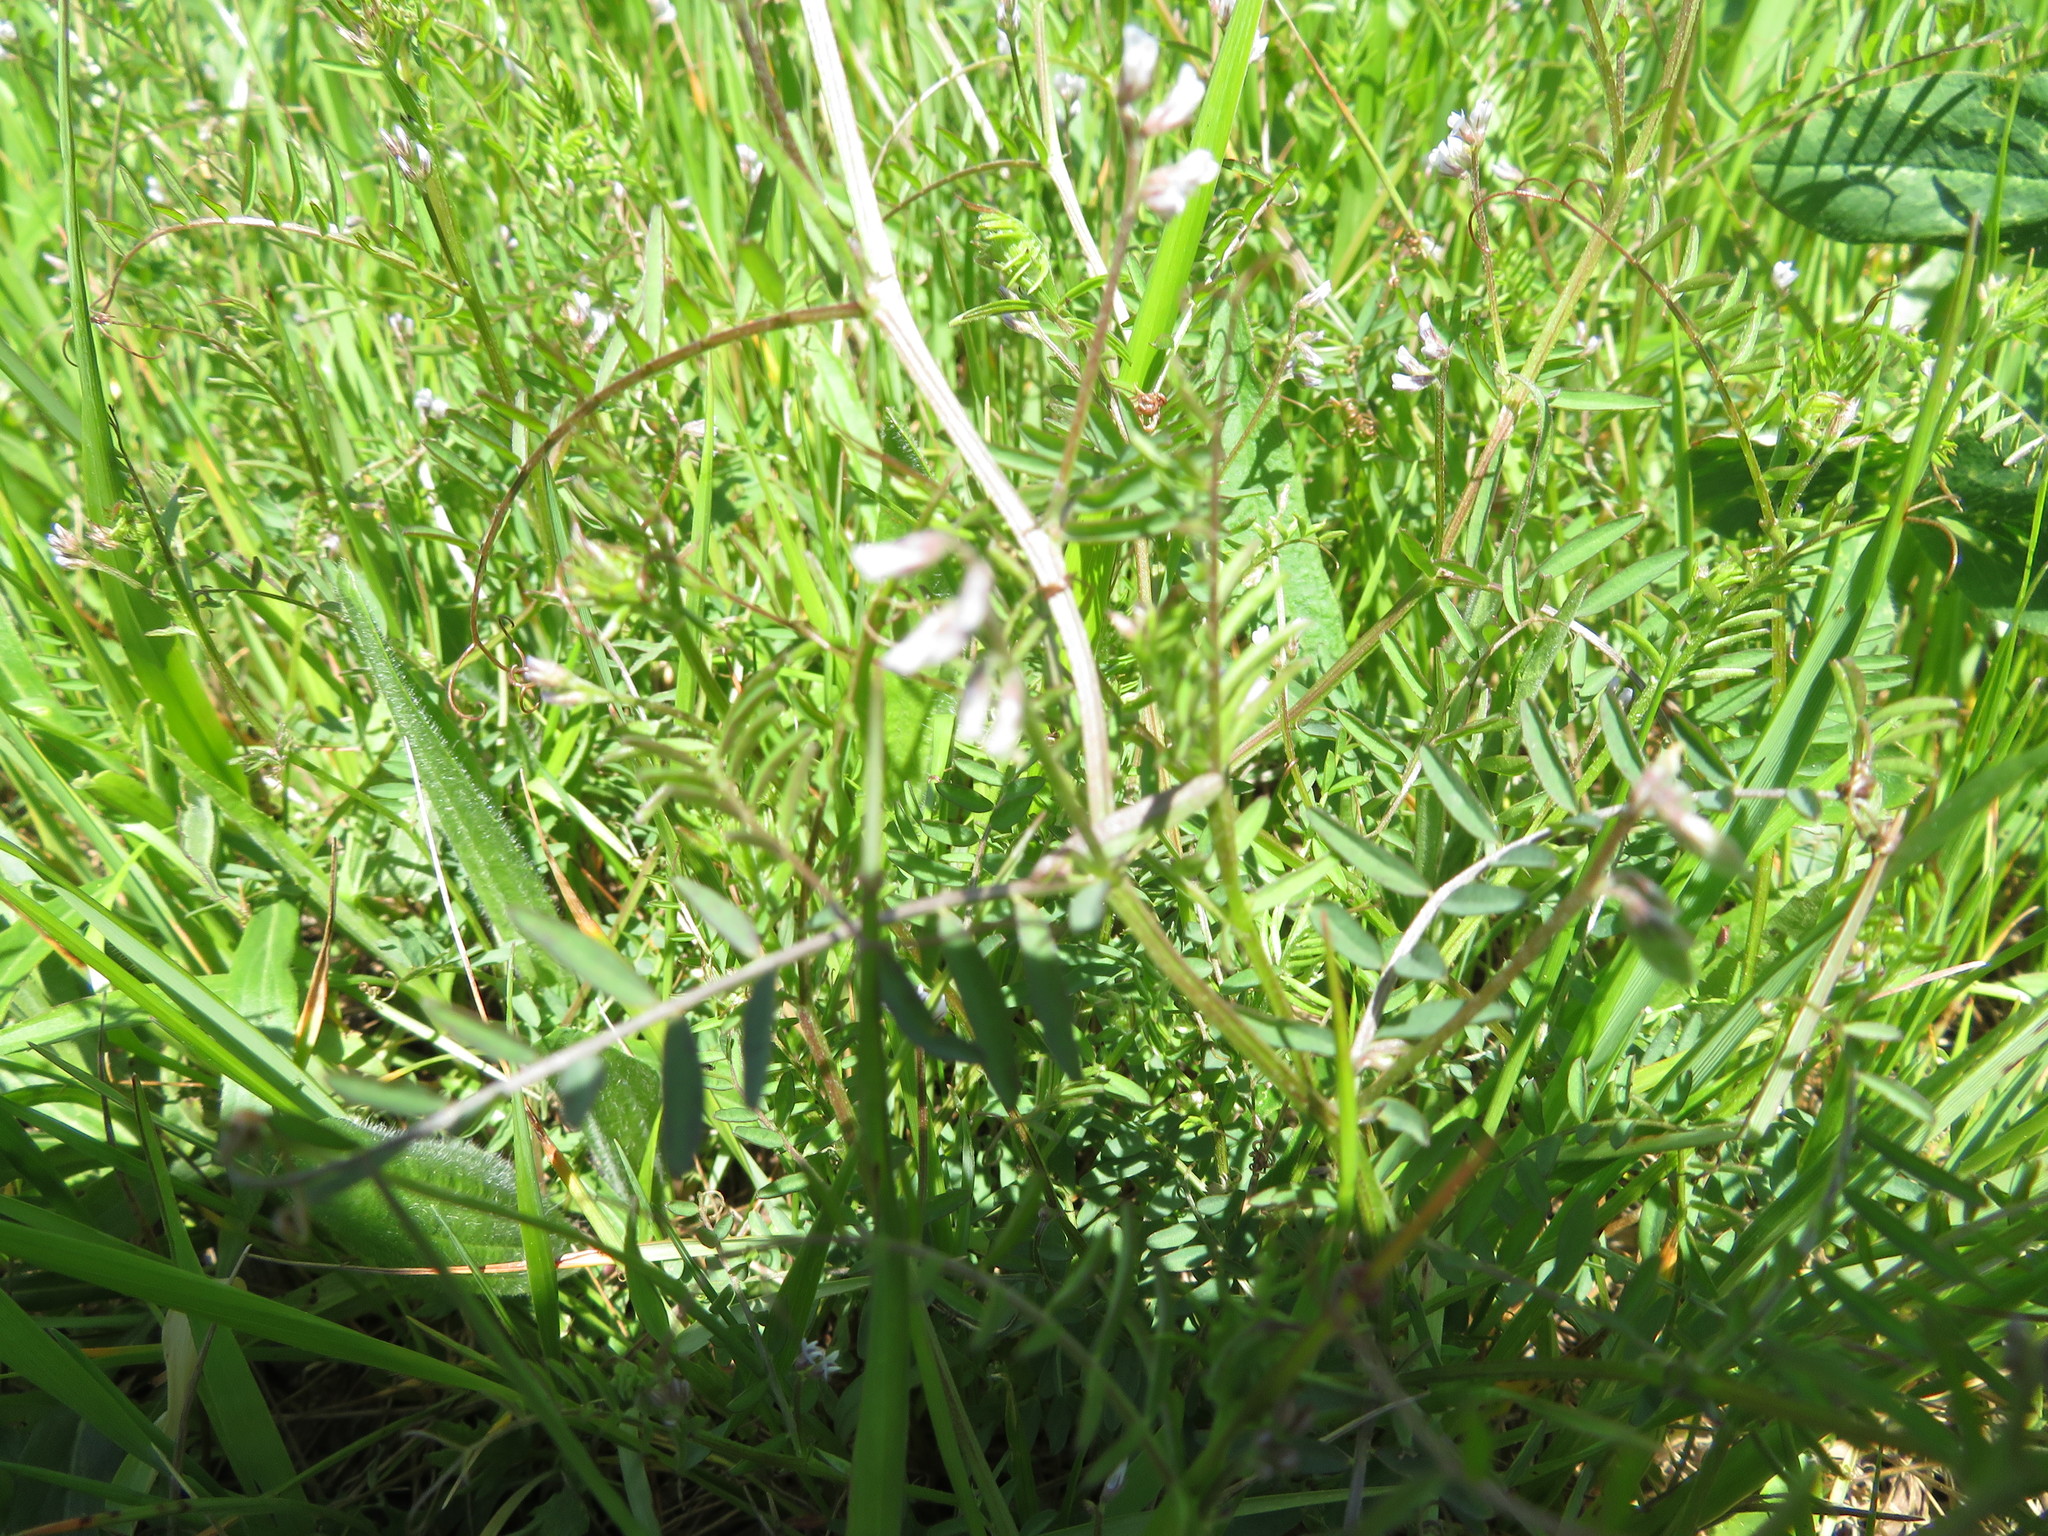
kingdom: Plantae
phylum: Tracheophyta
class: Magnoliopsida
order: Fabales
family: Fabaceae
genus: Vicia
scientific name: Vicia hirsuta
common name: Tiny vetch
